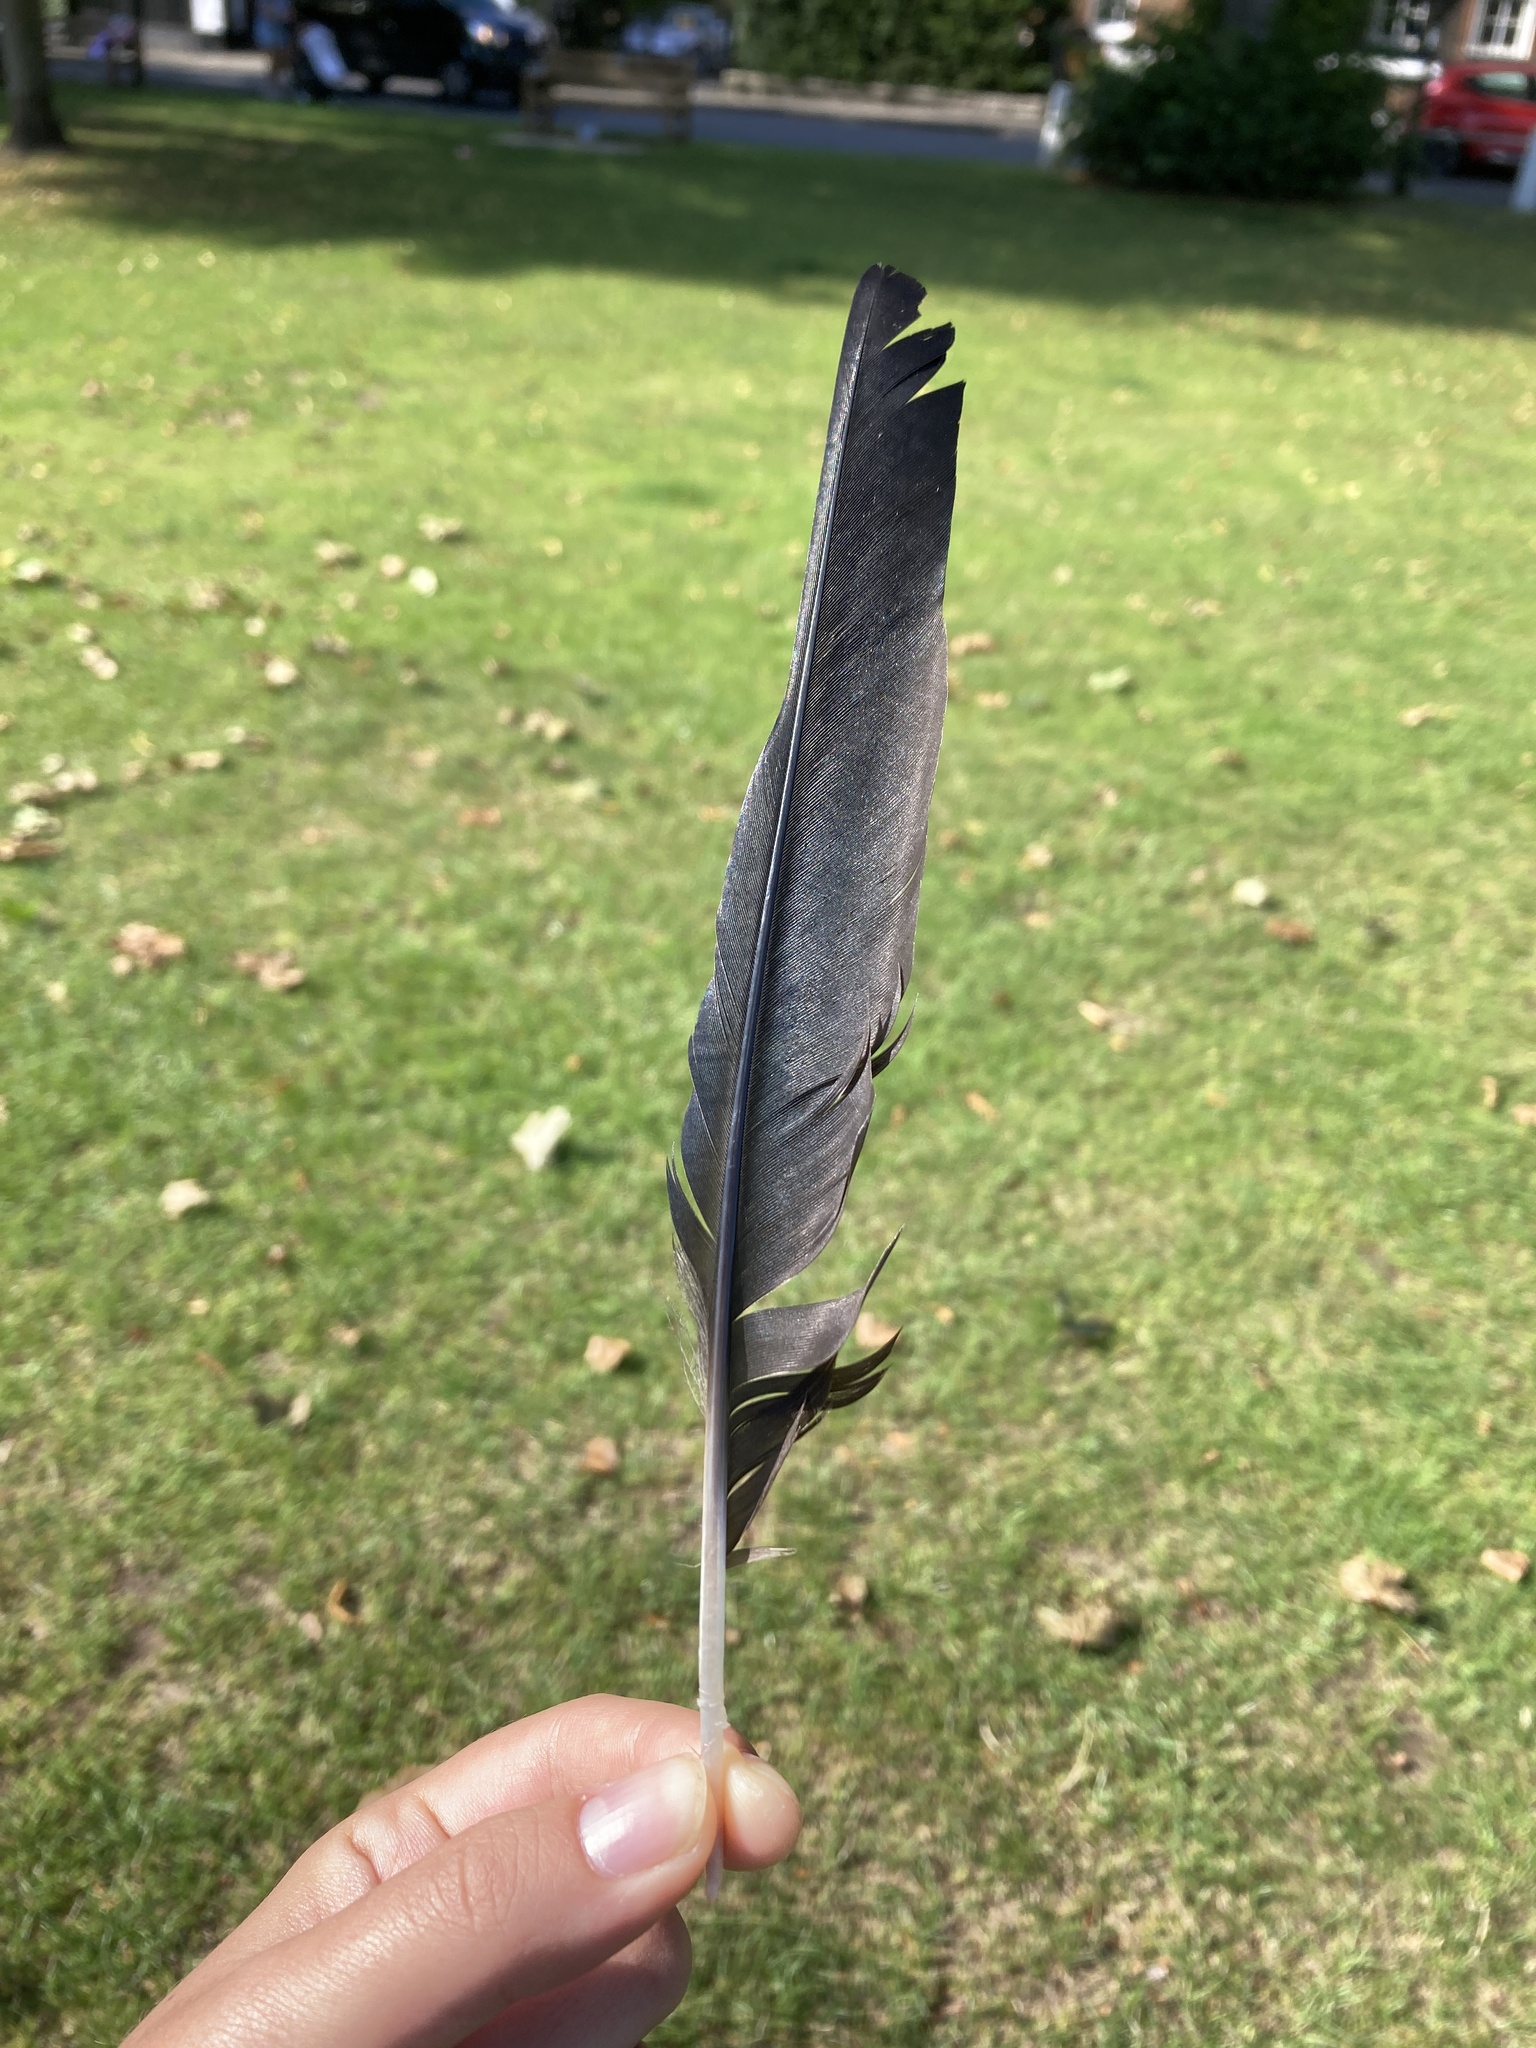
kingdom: Animalia
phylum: Chordata
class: Aves
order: Passeriformes
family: Corvidae
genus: Coloeus
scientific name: Coloeus monedula
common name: Western jackdaw
